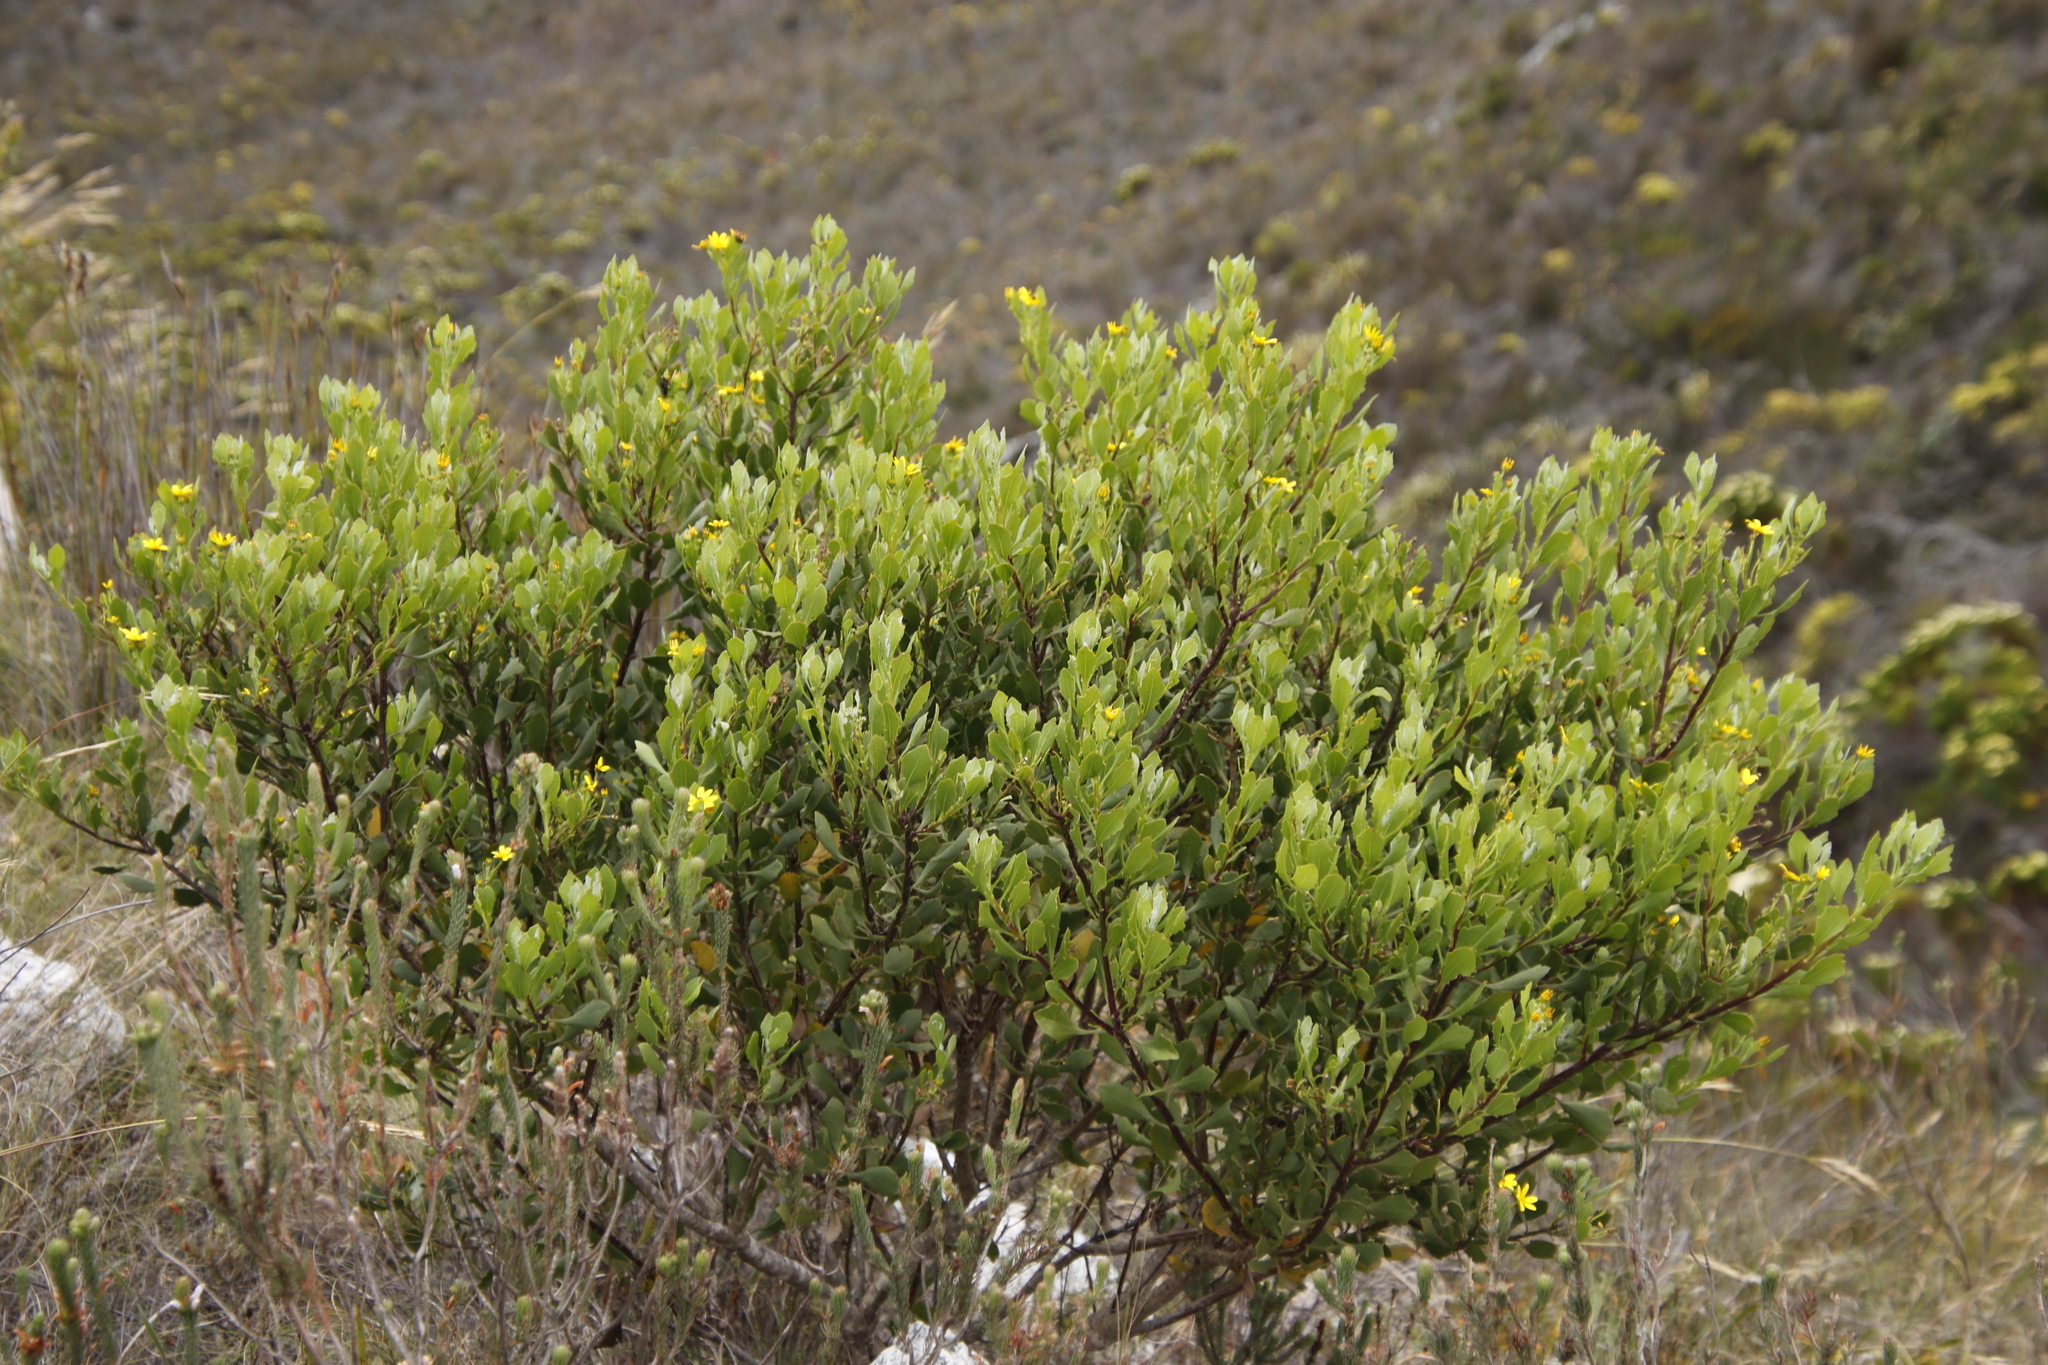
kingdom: Plantae
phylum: Tracheophyta
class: Magnoliopsida
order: Asterales
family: Asteraceae
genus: Osteospermum
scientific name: Osteospermum moniliferum
